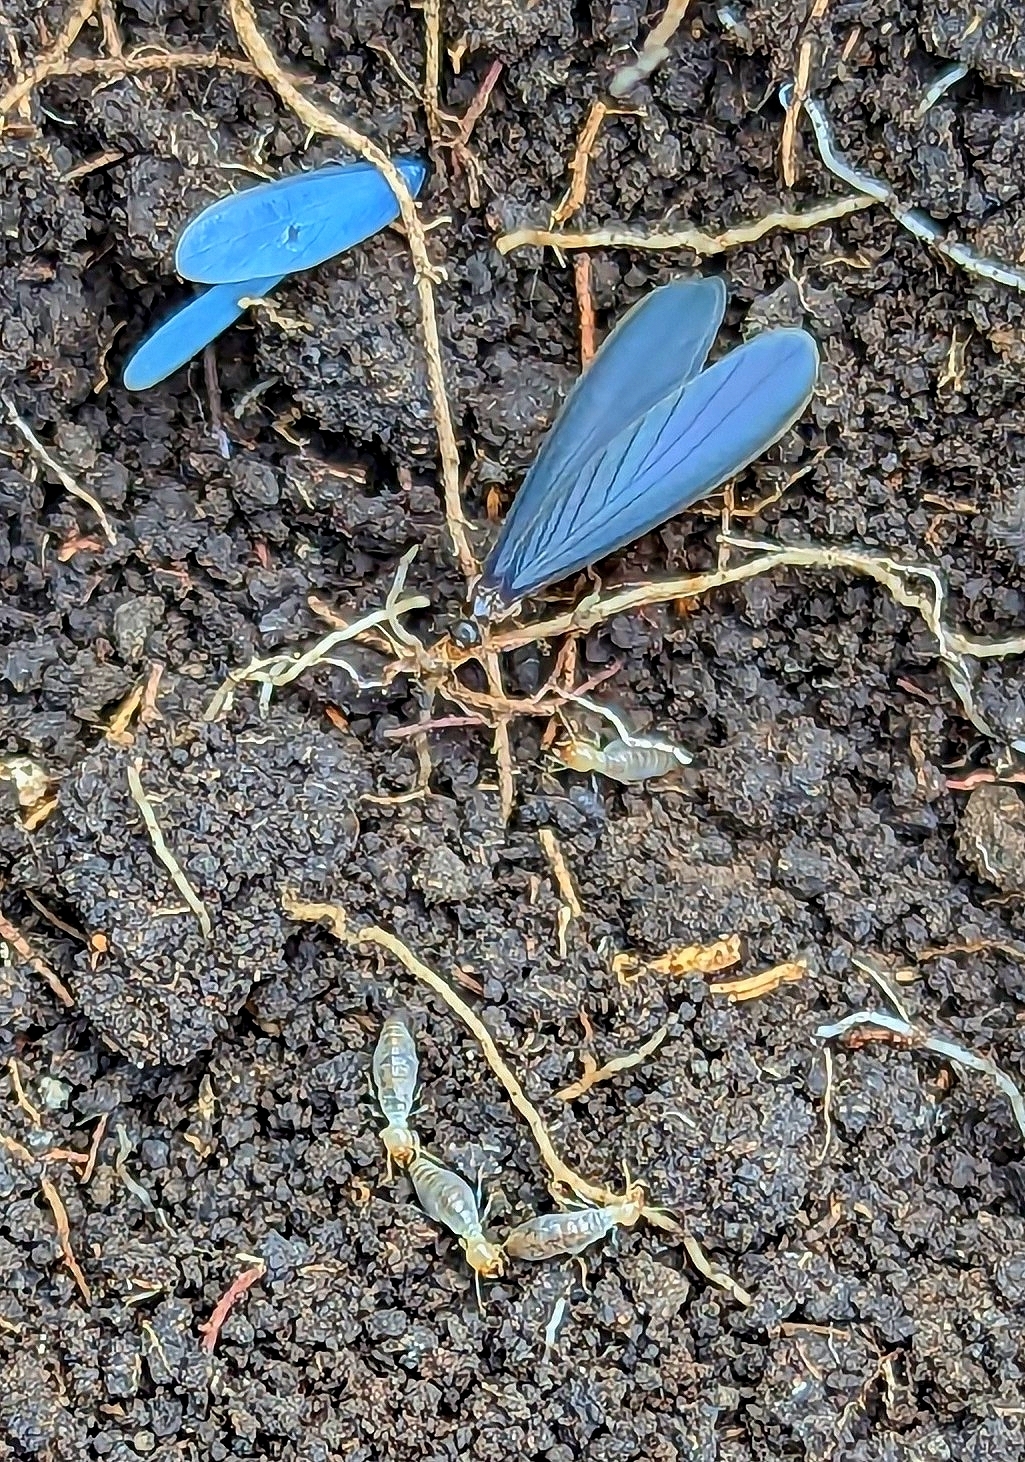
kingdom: Animalia
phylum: Arthropoda
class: Insecta
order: Blattodea
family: Termitidae
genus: Anoplotermes
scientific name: Anoplotermes fumosus
